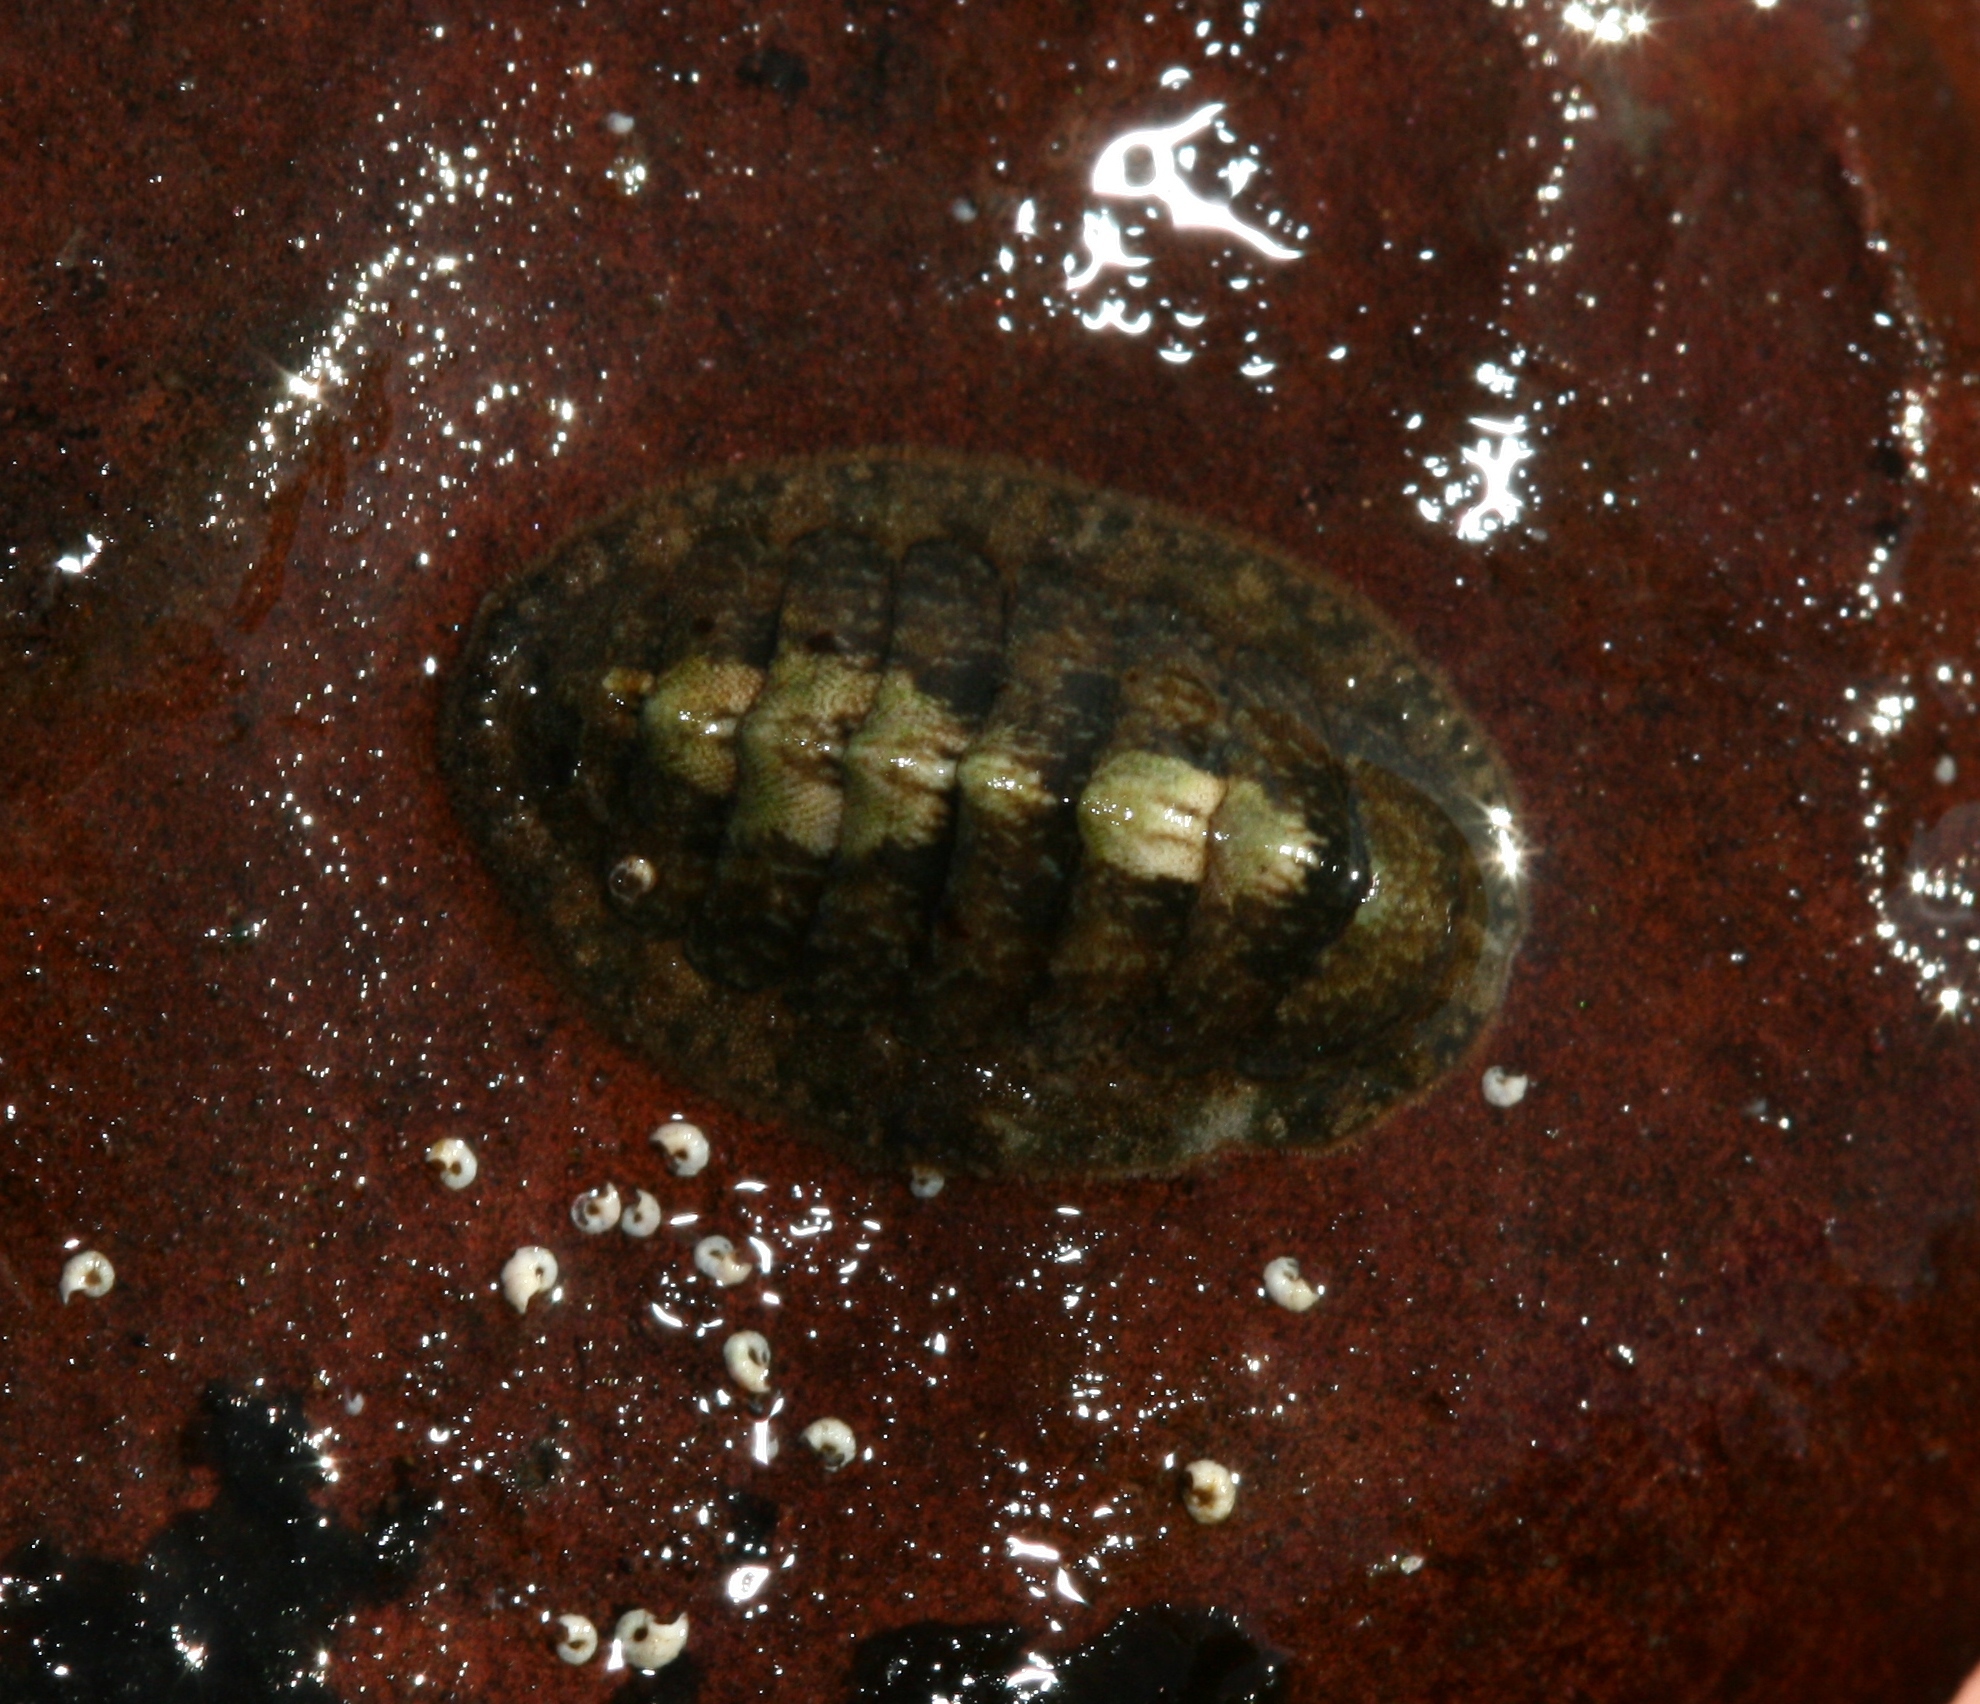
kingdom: Animalia
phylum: Mollusca
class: Polyplacophora
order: Chitonida
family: Tonicellidae
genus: Lepidochitona
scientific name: Lepidochitona cinerea
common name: Cinereous chiton
